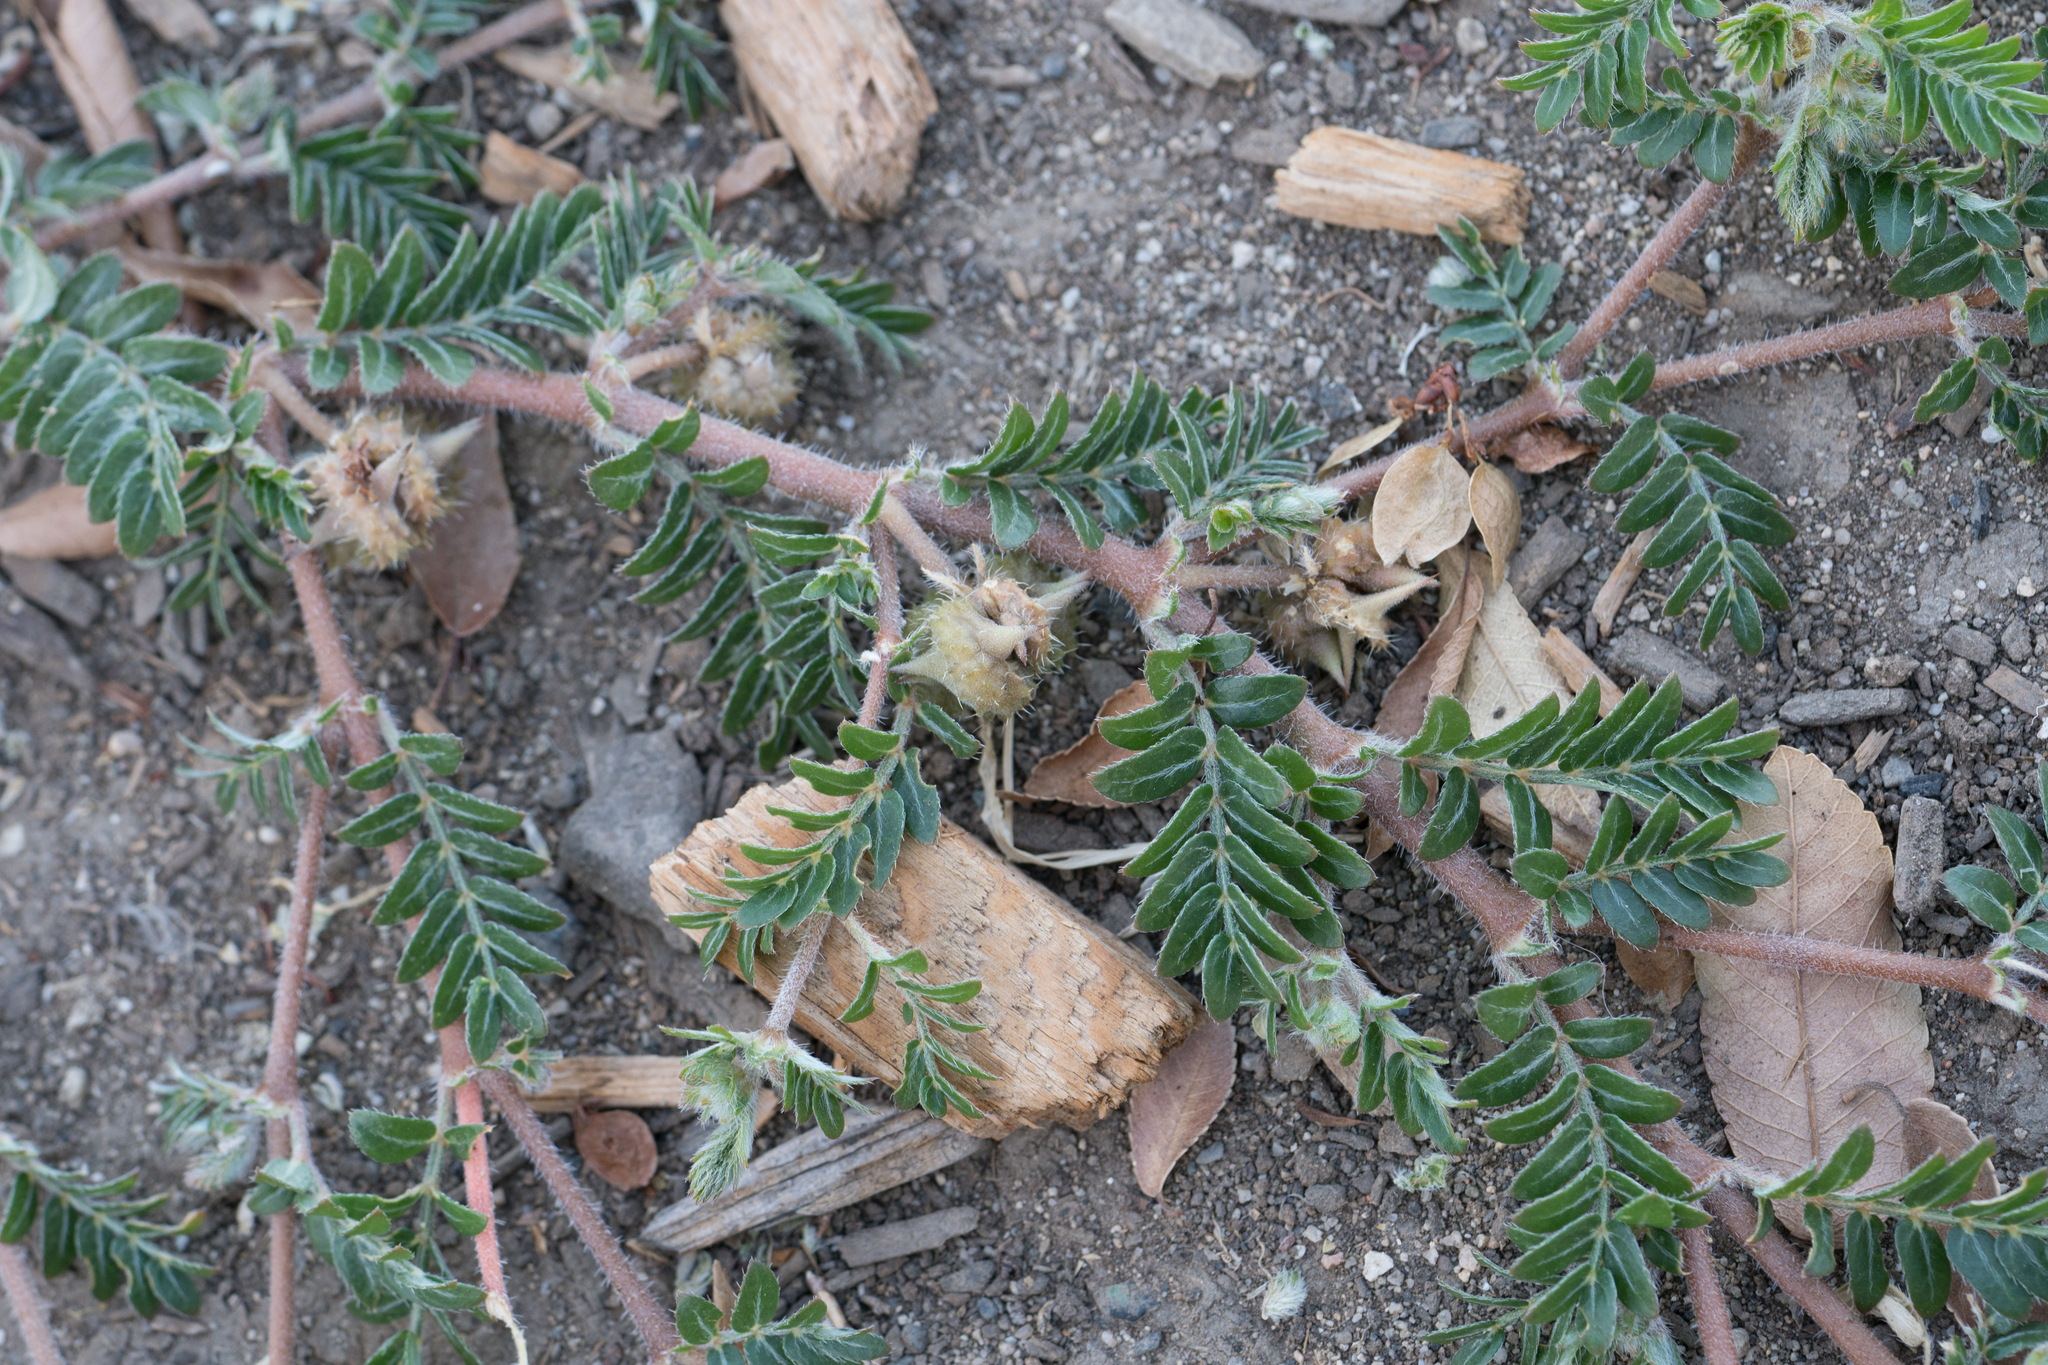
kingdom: Plantae
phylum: Tracheophyta
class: Magnoliopsida
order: Zygophyllales
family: Zygophyllaceae
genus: Tribulus
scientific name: Tribulus terrestris
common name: Puncturevine
